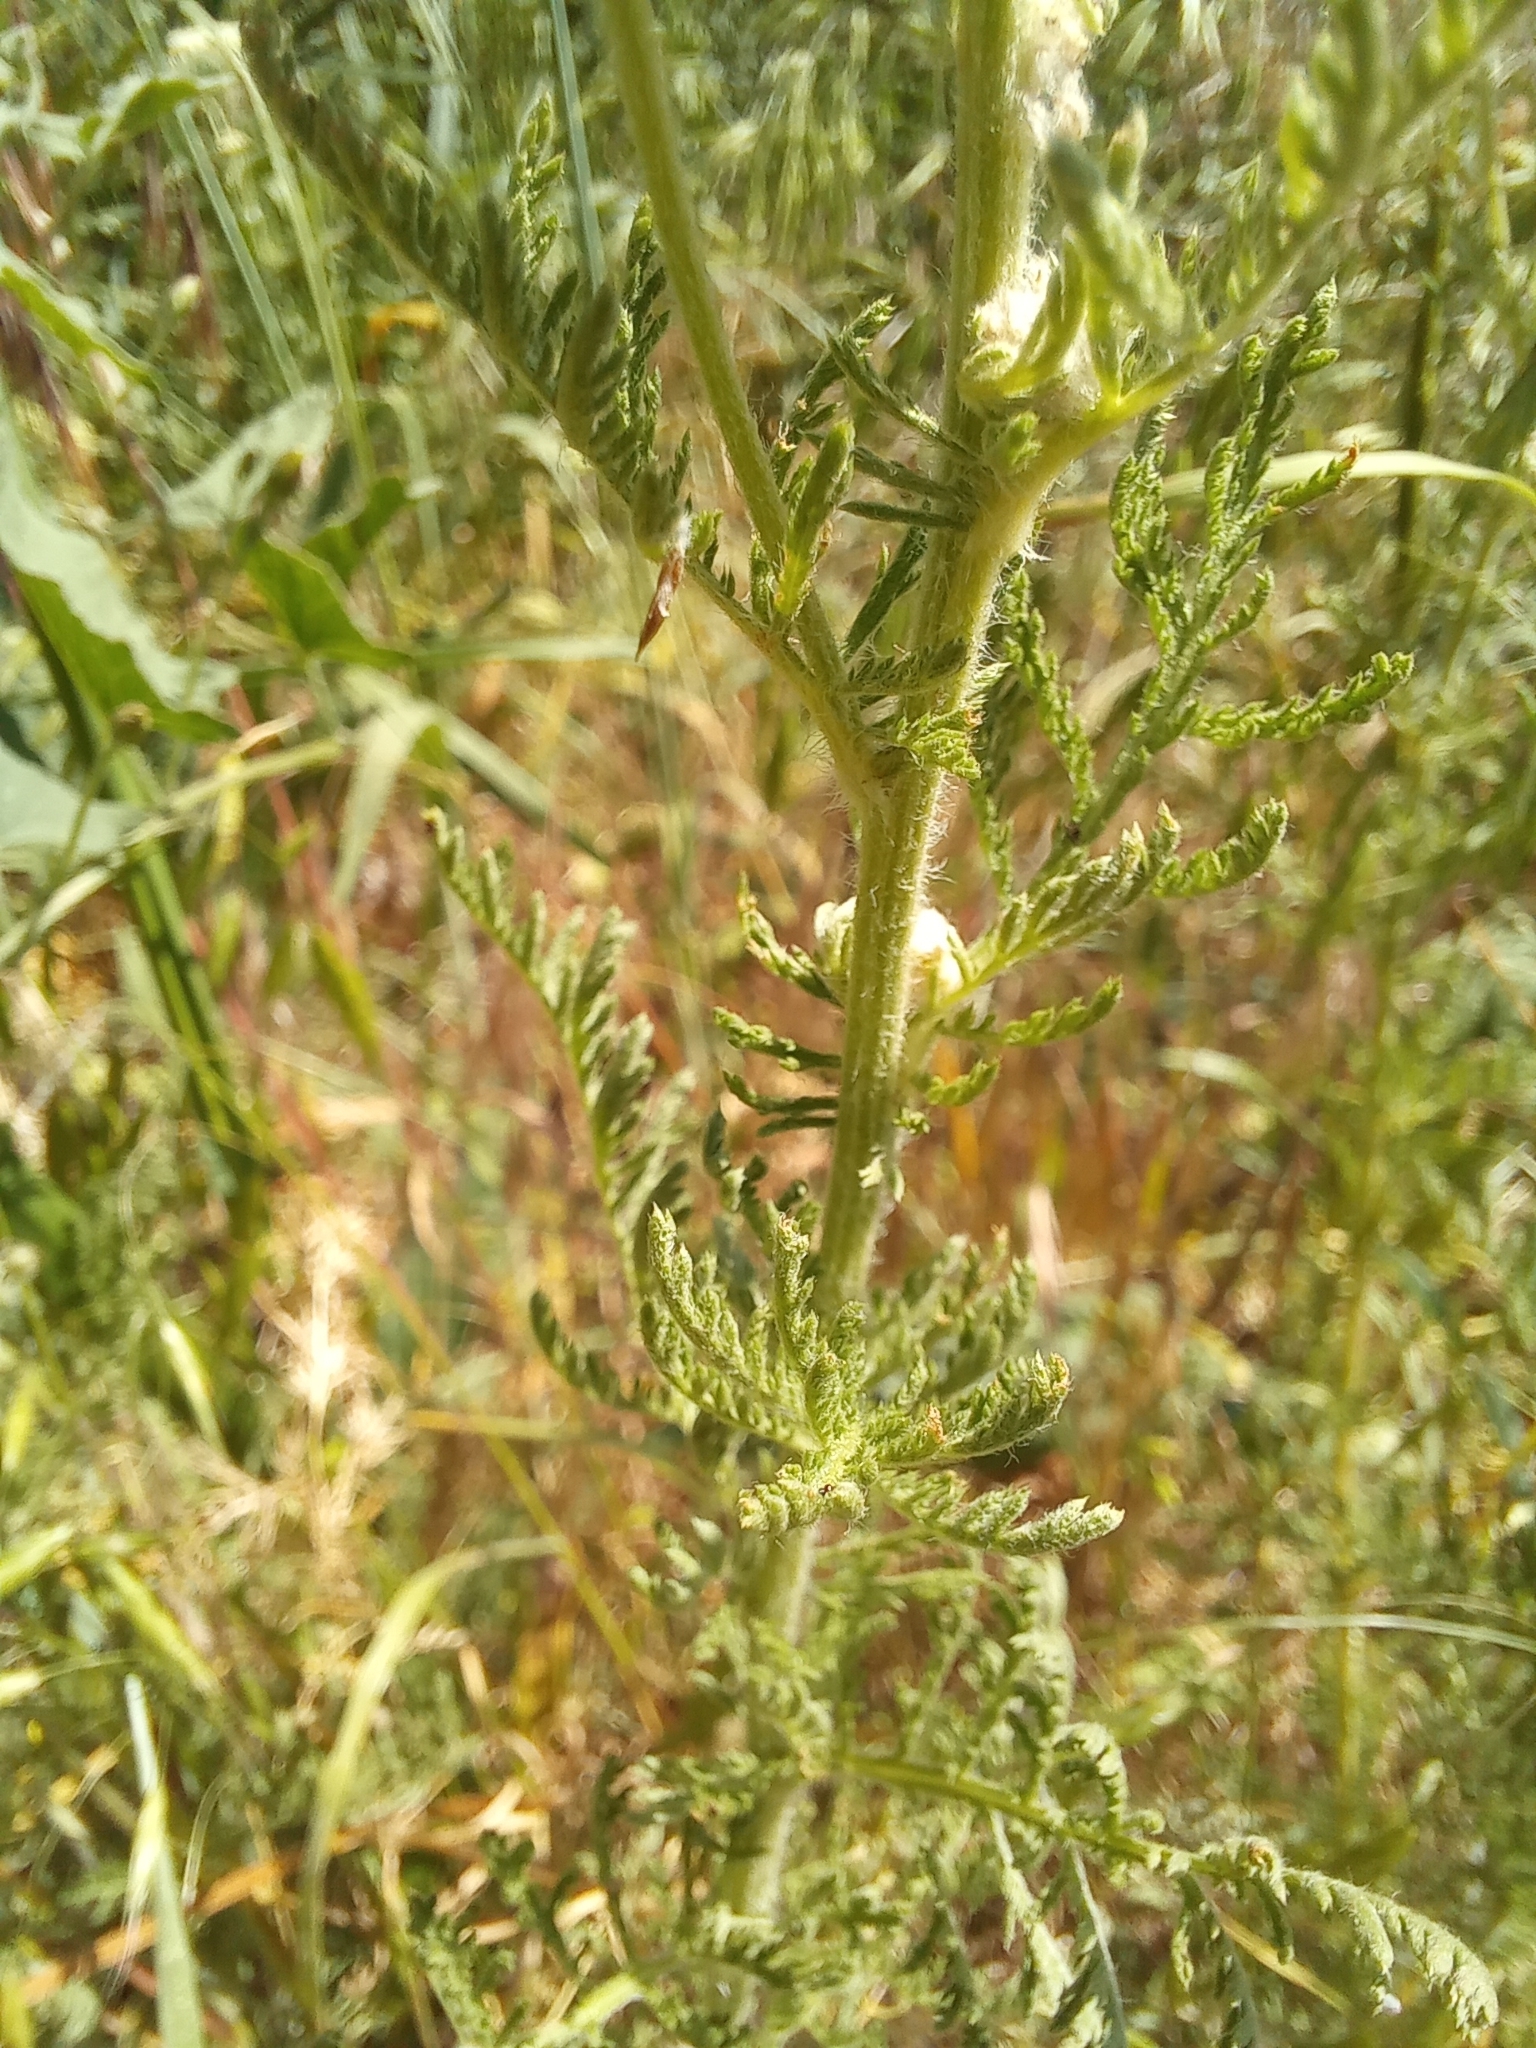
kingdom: Plantae
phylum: Tracheophyta
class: Magnoliopsida
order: Asterales
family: Asteraceae
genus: Achillea
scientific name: Achillea millefolium
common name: Yarrow
